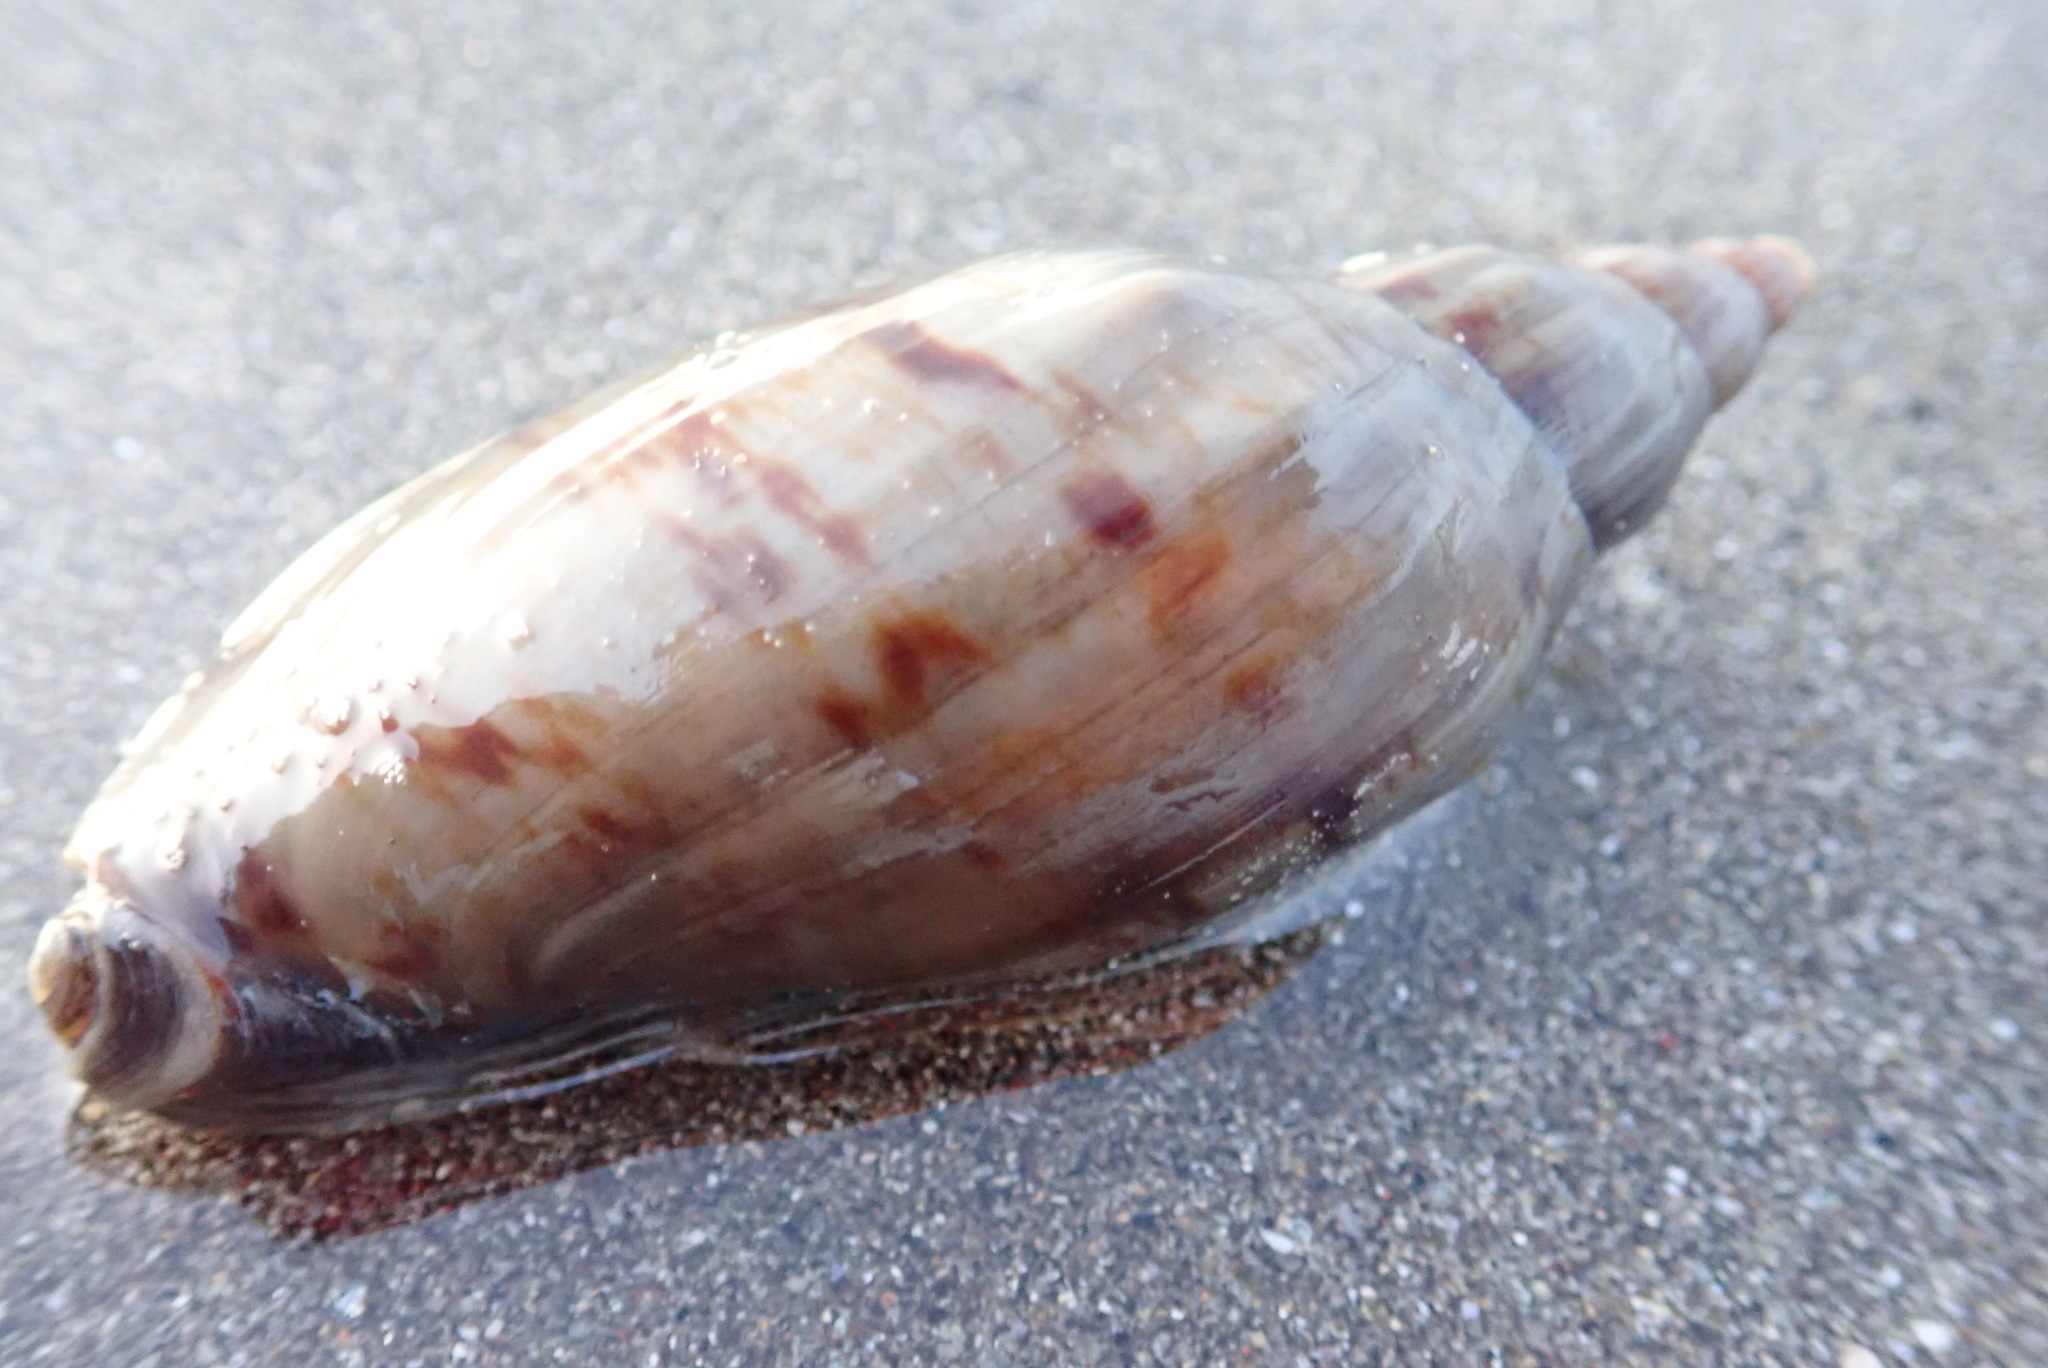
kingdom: Animalia
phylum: Mollusca
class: Gastropoda
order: Neogastropoda
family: Volutidae
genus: Alcithoe
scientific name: Alcithoe arabica
